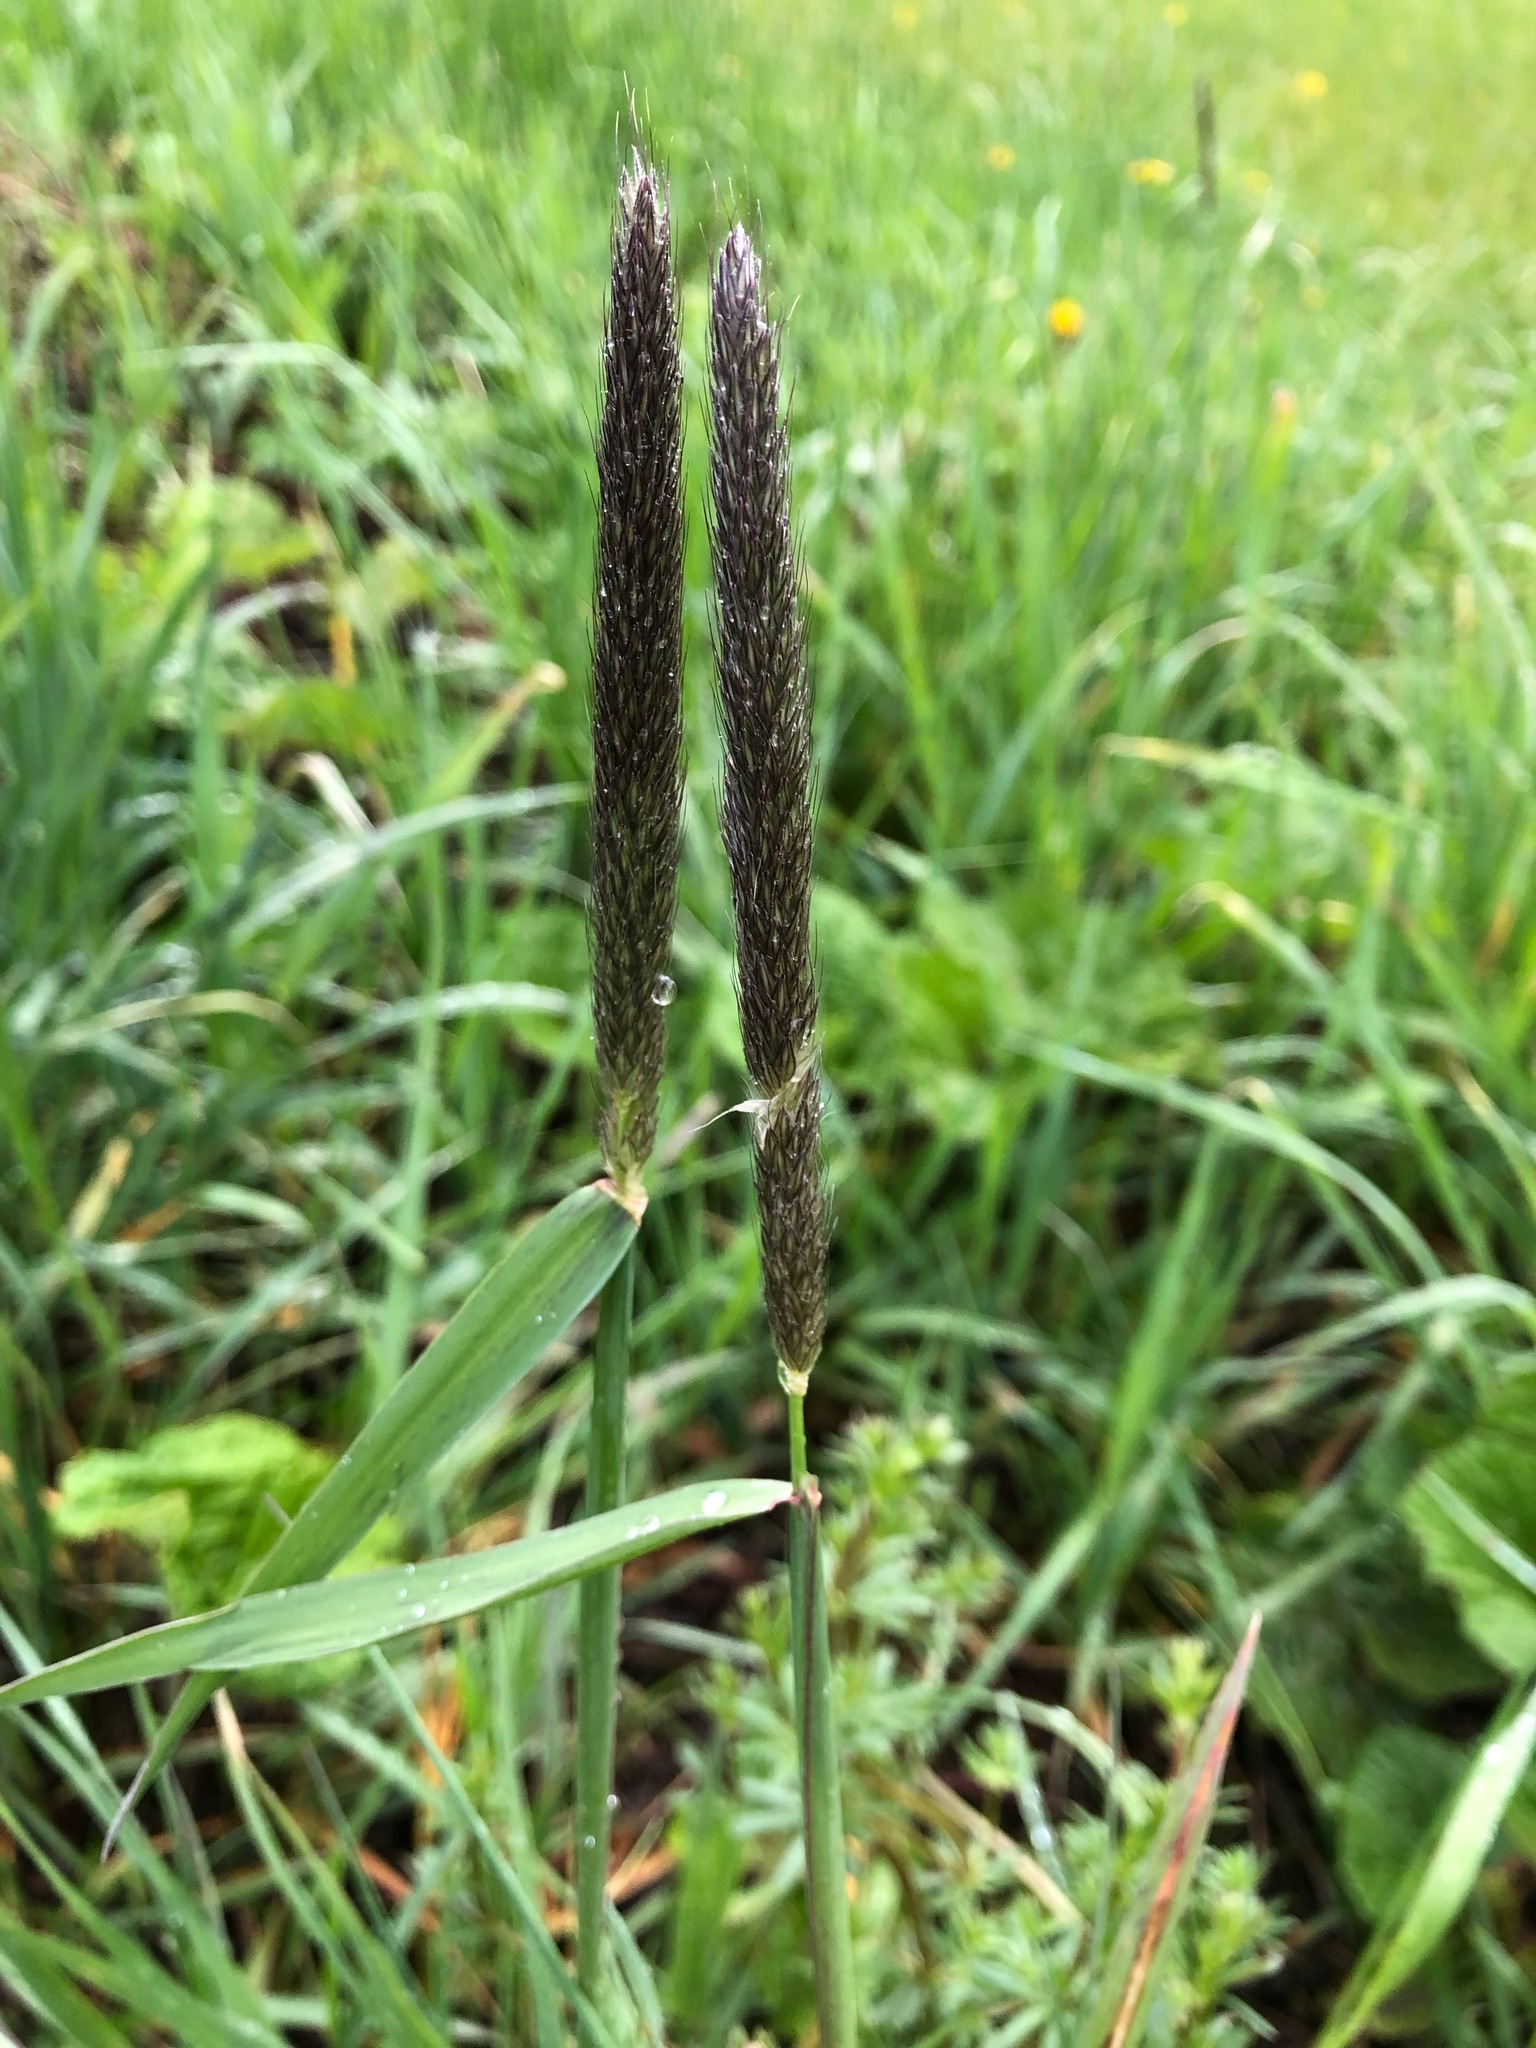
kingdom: Plantae
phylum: Tracheophyta
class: Liliopsida
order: Poales
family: Poaceae
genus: Alopecurus
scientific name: Alopecurus pratensis
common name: Meadow foxtail
